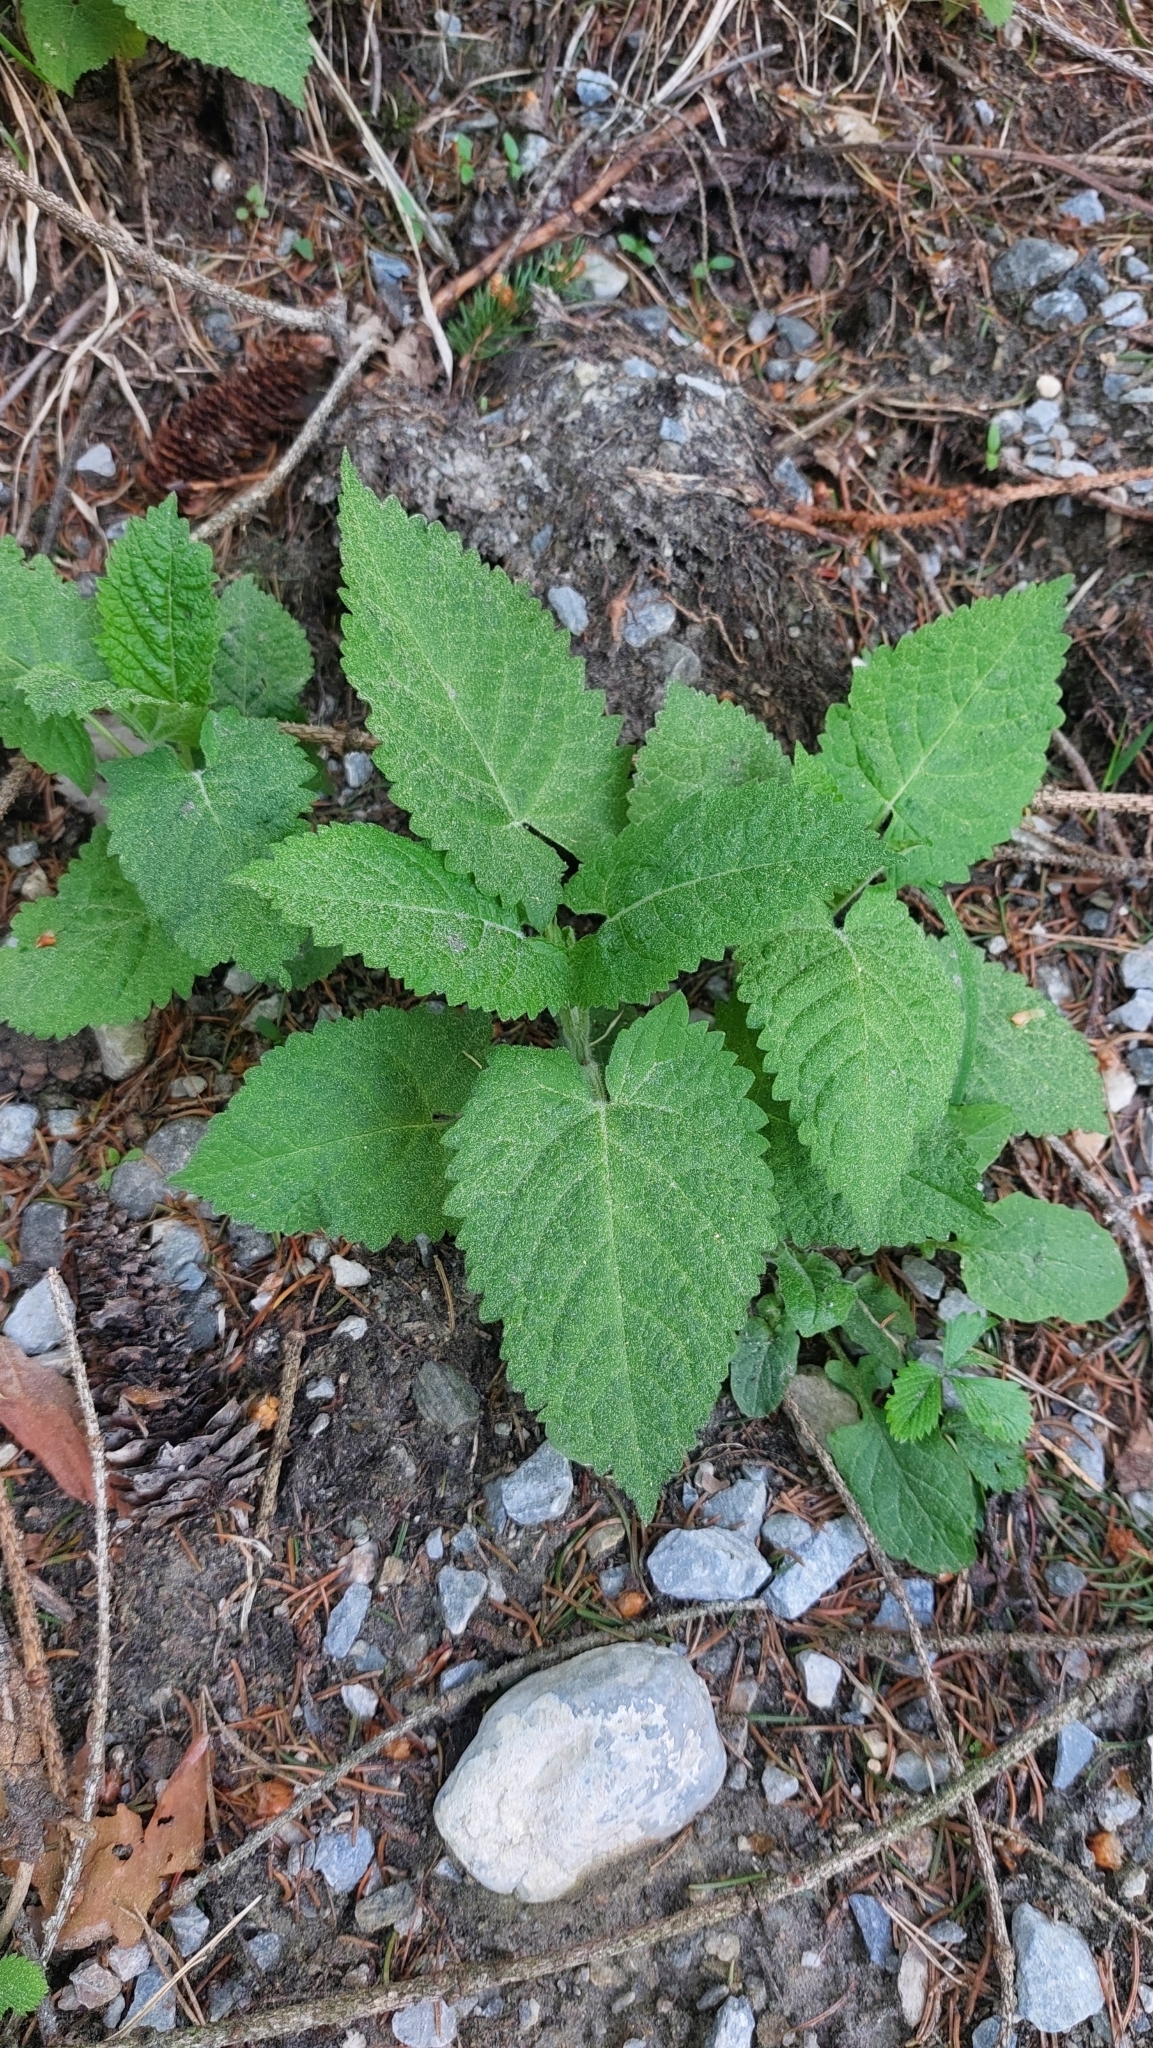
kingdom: Plantae
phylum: Tracheophyta
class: Magnoliopsida
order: Lamiales
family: Lamiaceae
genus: Salvia
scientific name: Salvia glutinosa
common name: Sticky clary
